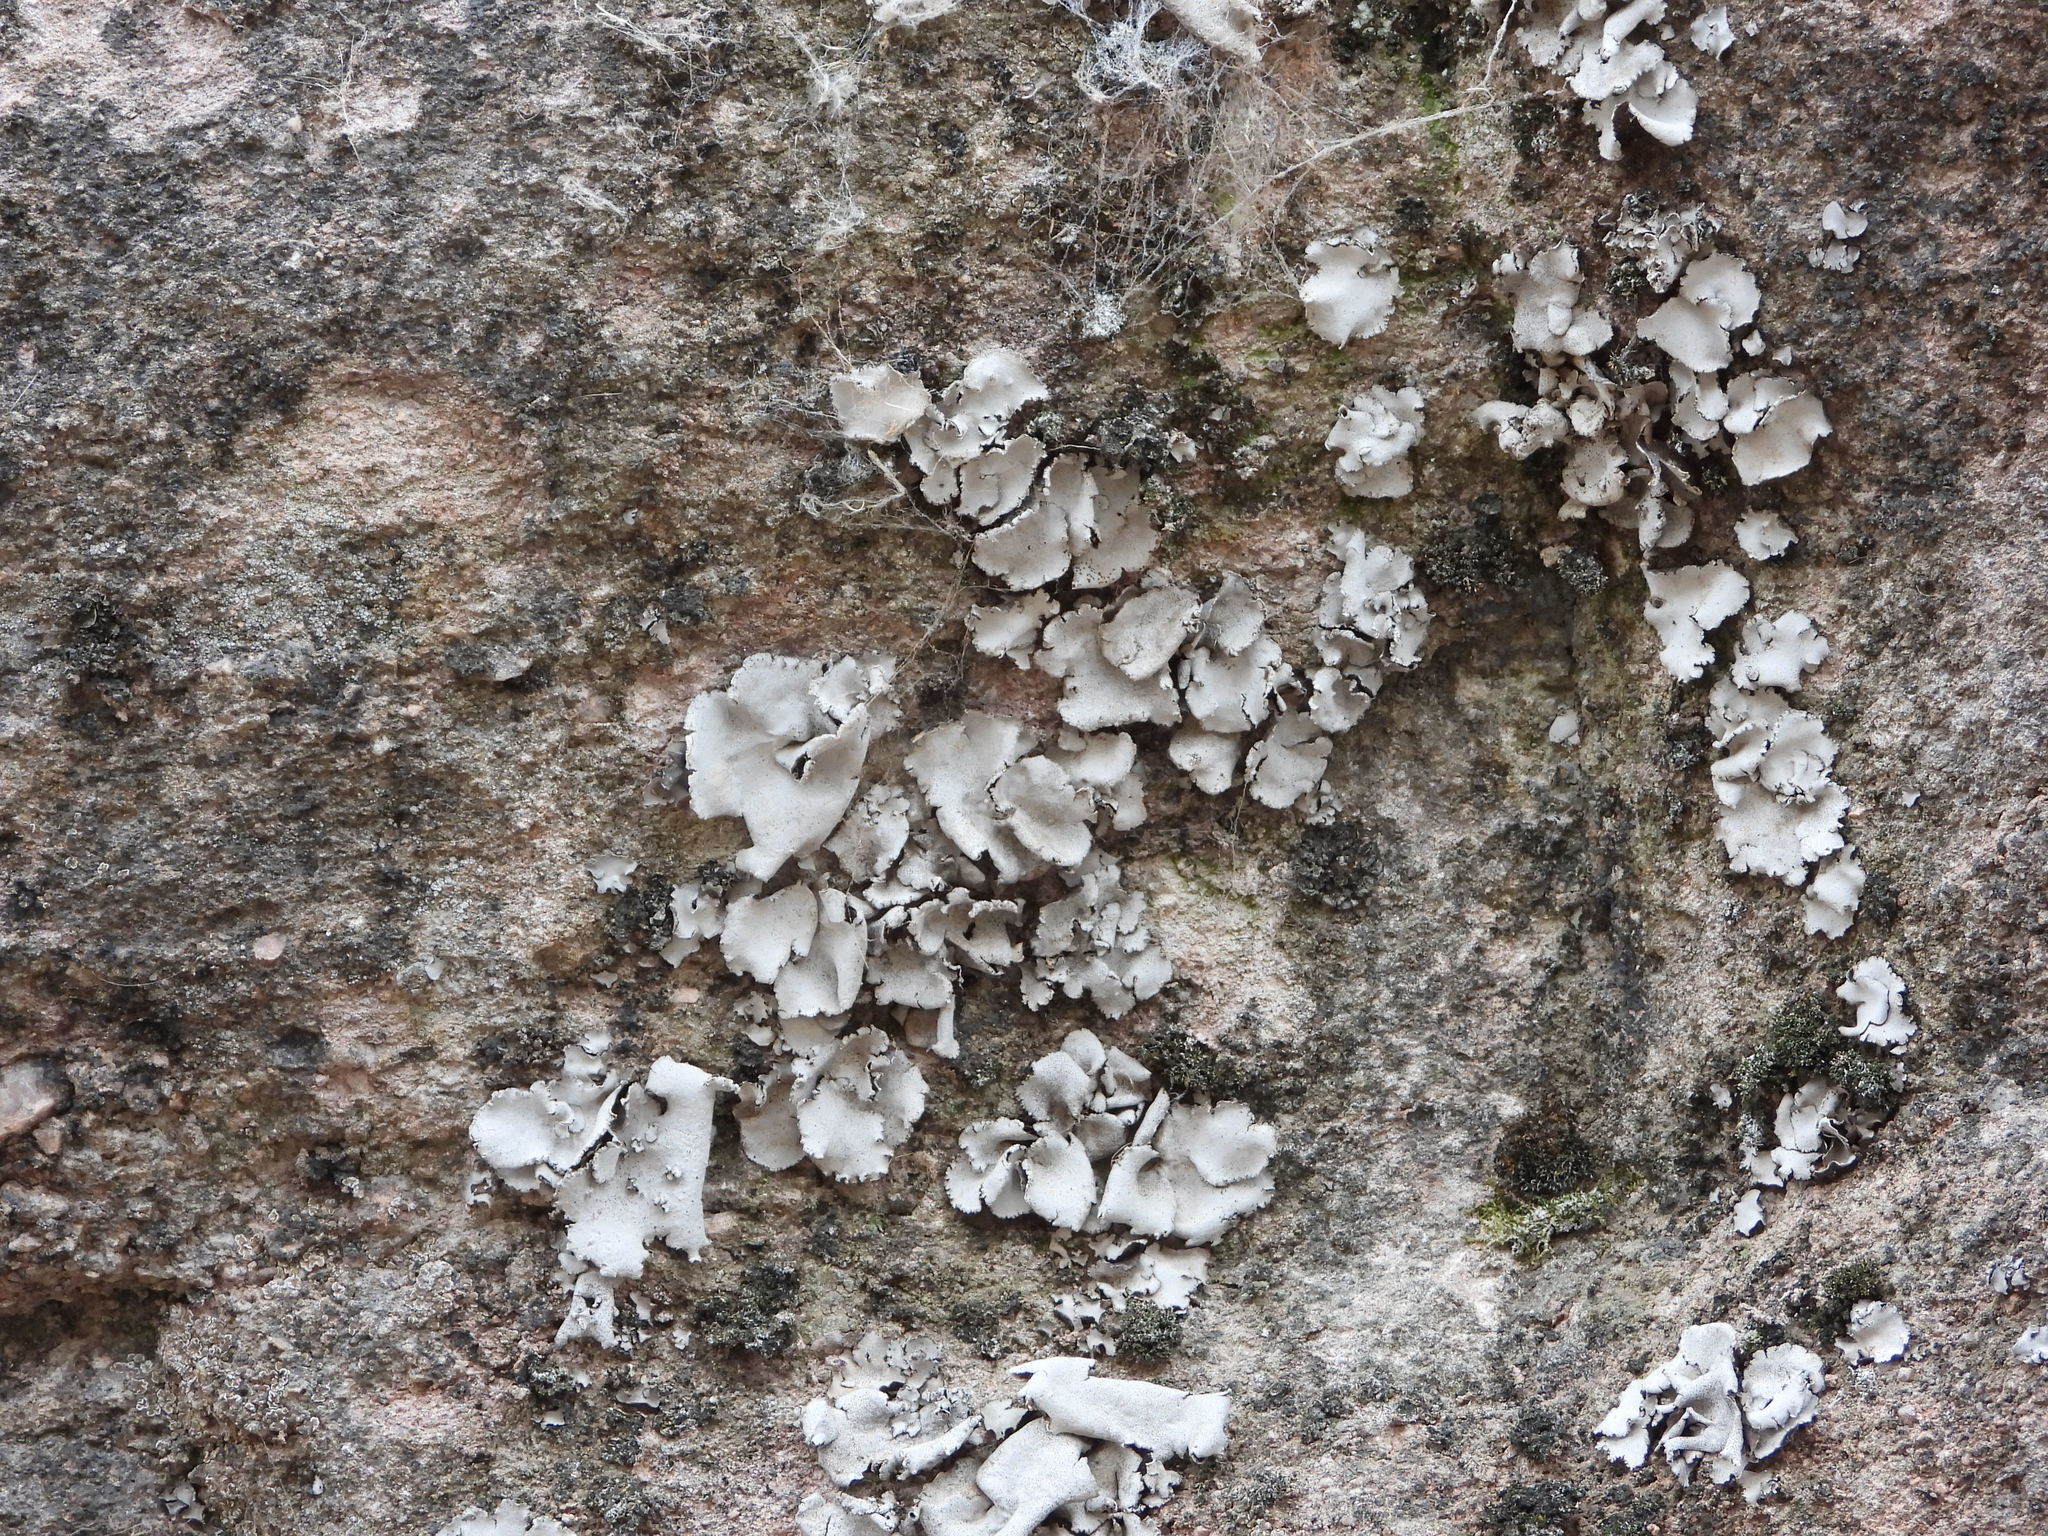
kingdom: Fungi
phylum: Ascomycota
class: Lecanoromycetes
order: Umbilicariales
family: Umbilicariaceae
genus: Umbilicaria
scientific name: Umbilicaria americana
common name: Frosted rock tripe
